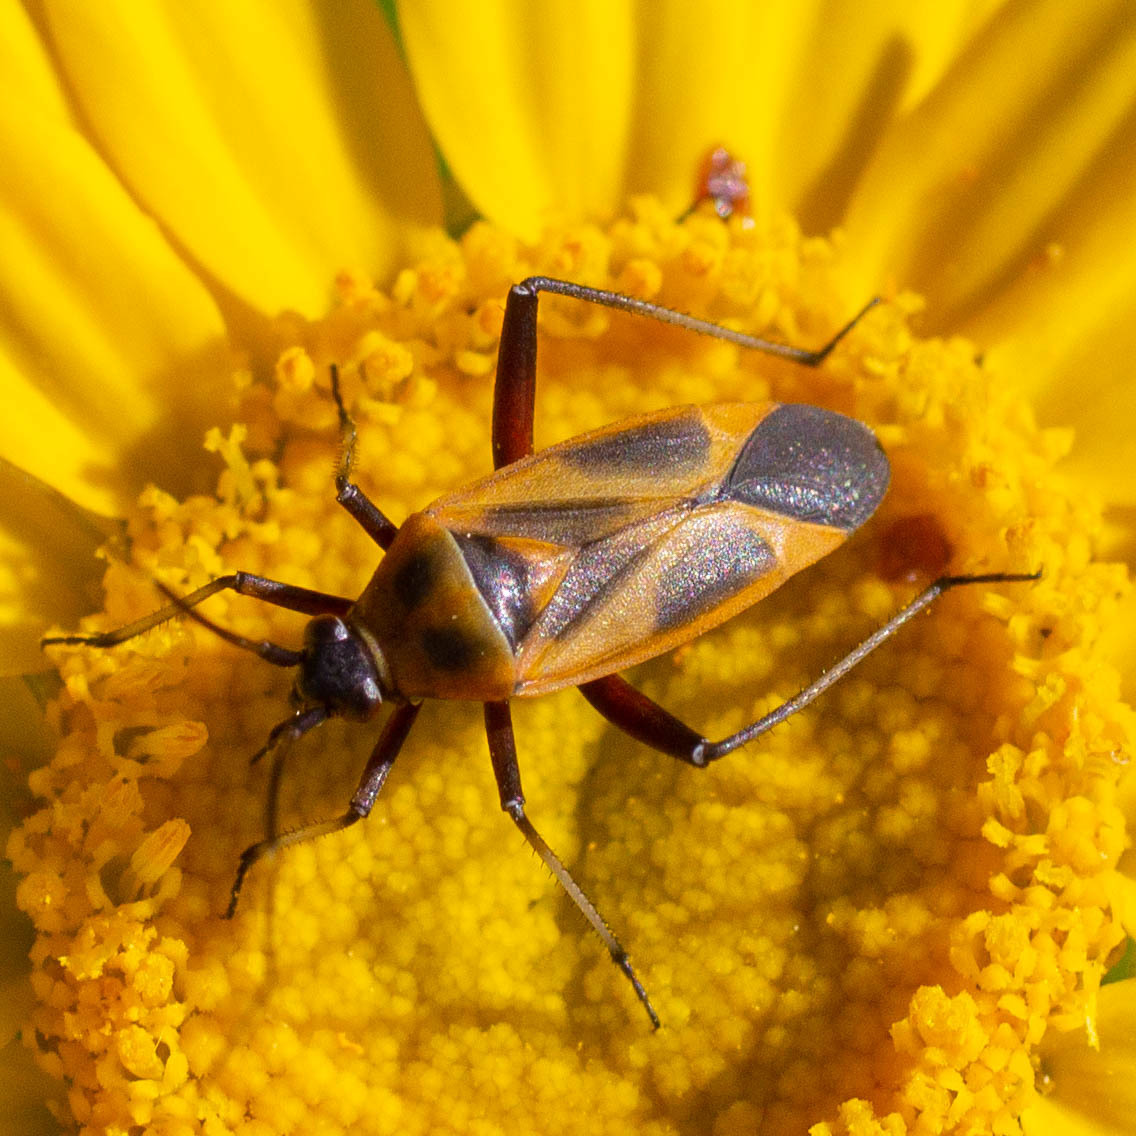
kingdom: Animalia
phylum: Arthropoda
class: Insecta
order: Hemiptera
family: Miridae
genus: Calocoris
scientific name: Calocoris nemoralis
